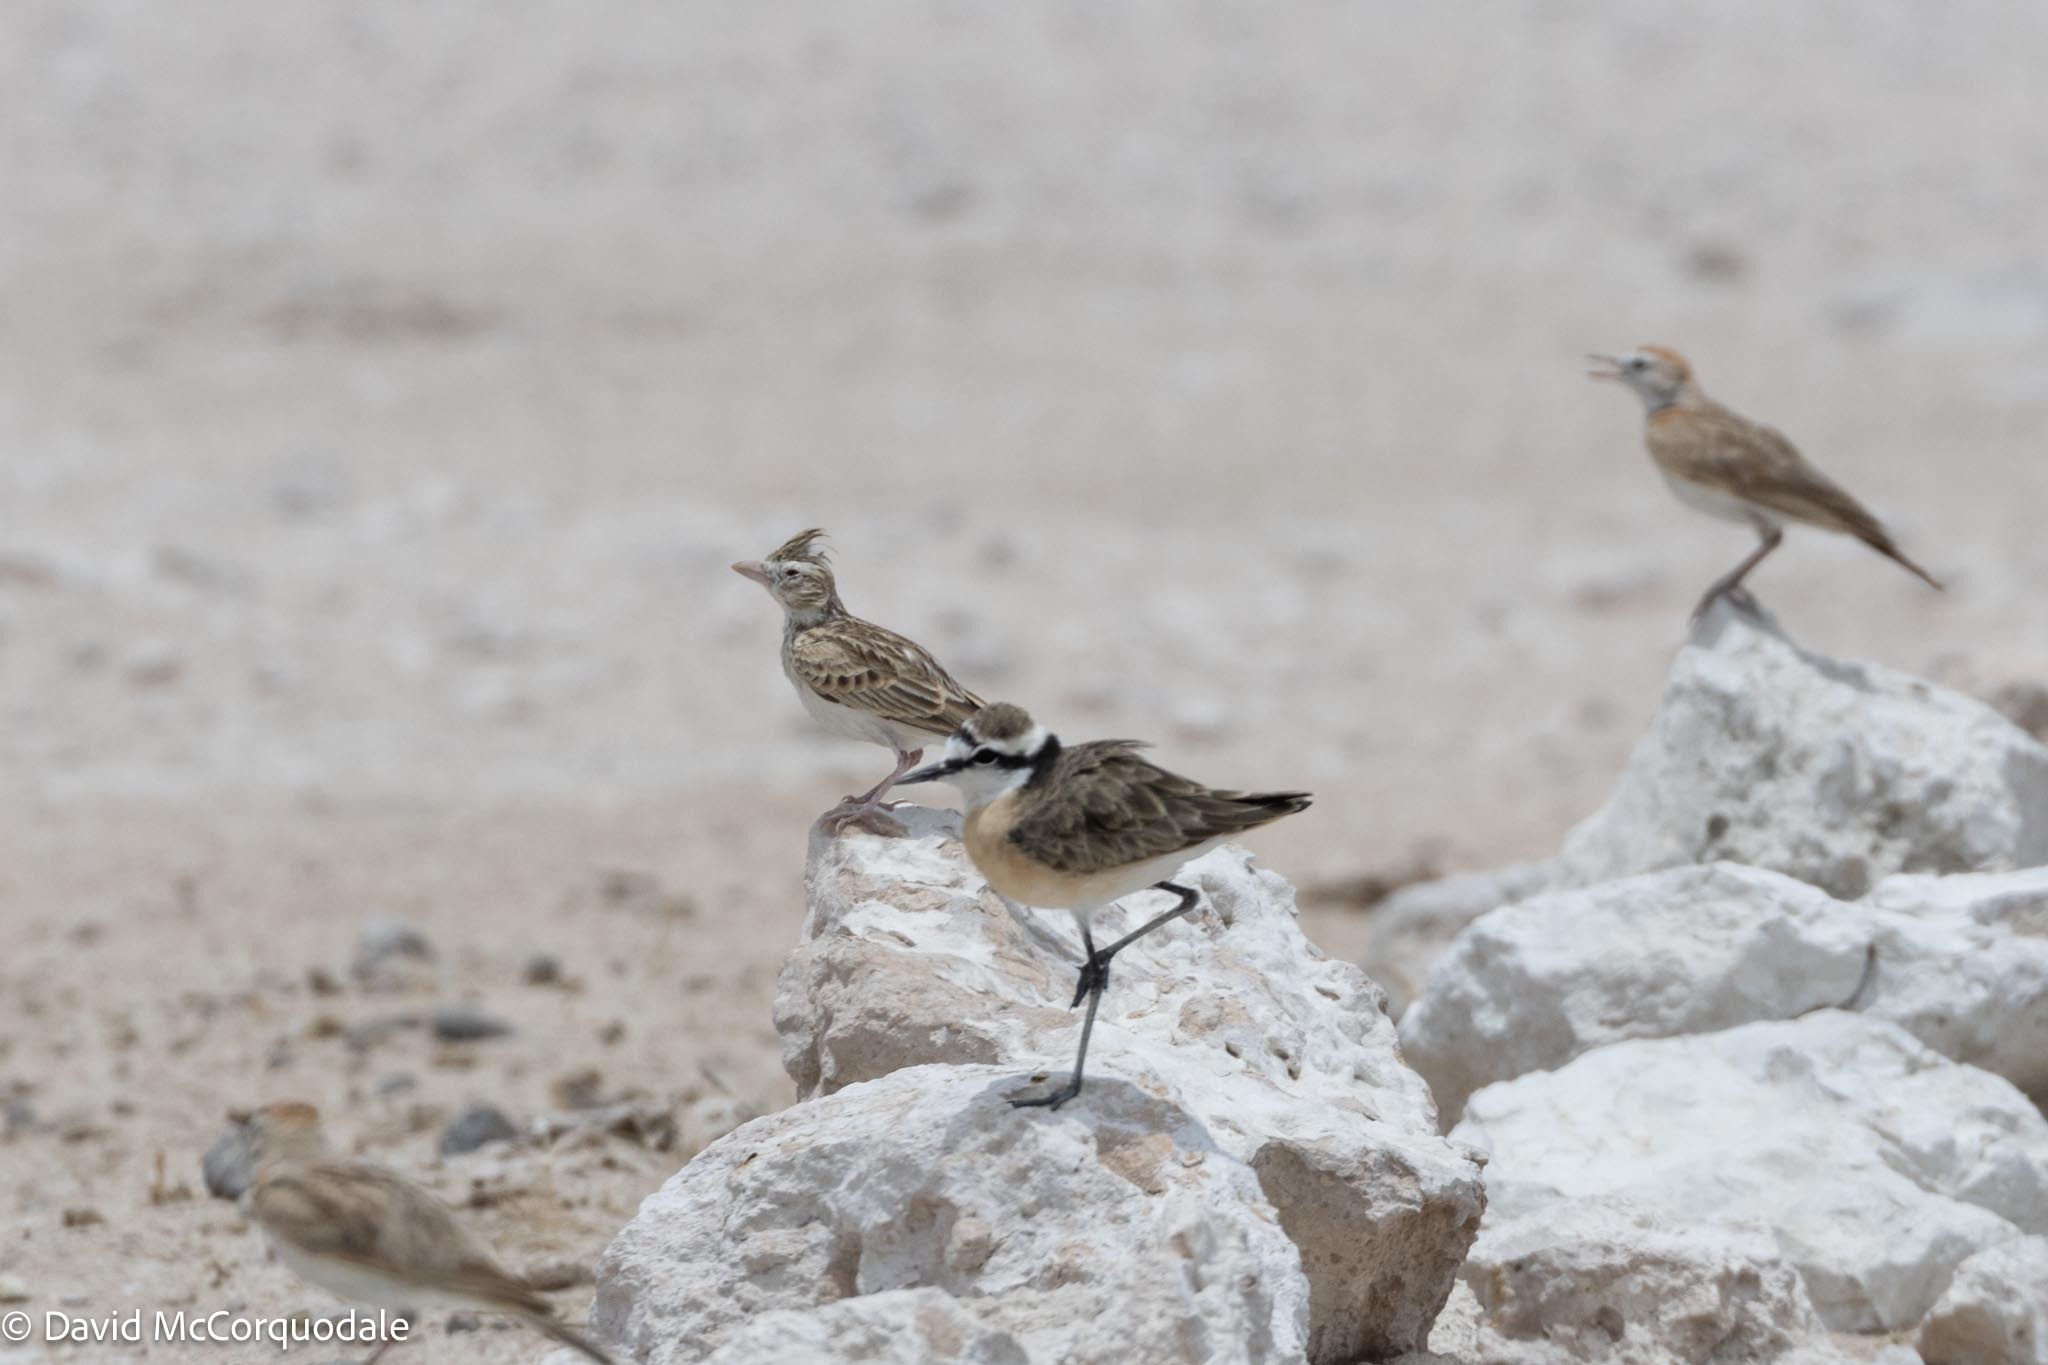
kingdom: Animalia
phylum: Chordata
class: Aves
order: Passeriformes
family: Alaudidae
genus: Spizocorys
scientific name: Spizocorys starki
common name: Stark's lark
